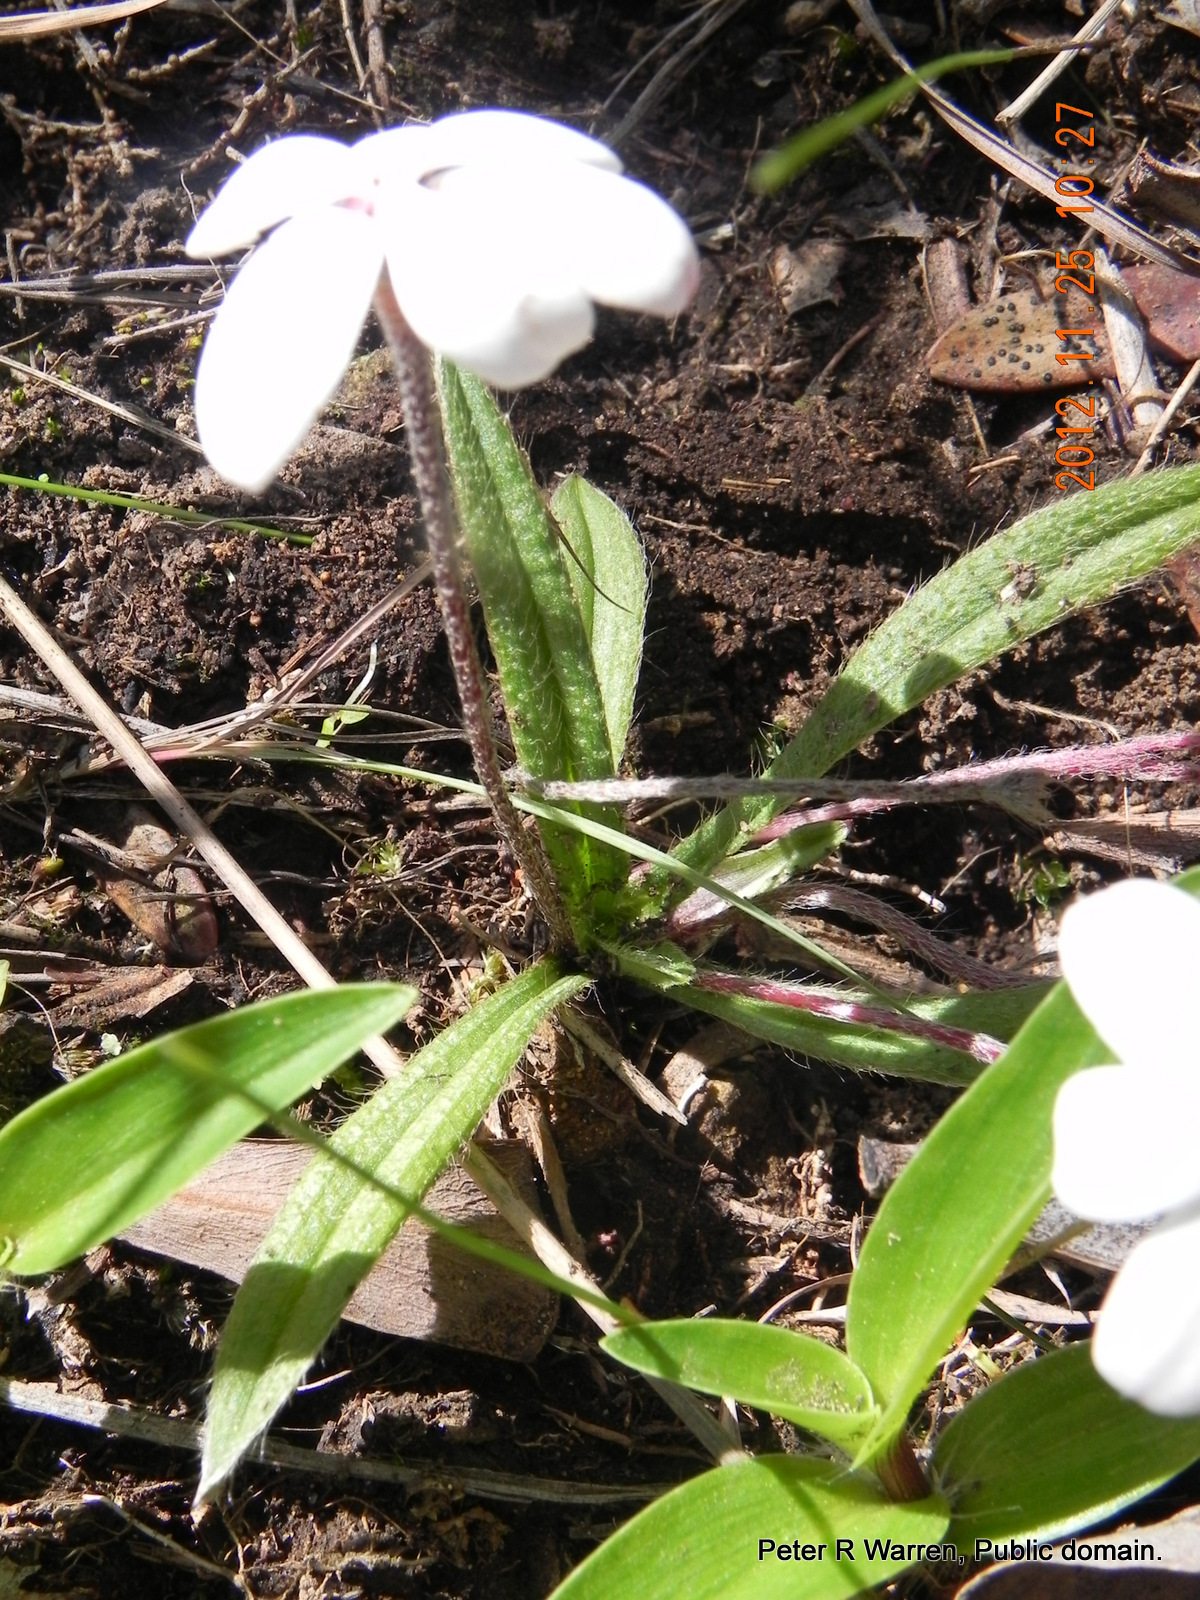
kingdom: Plantae
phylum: Tracheophyta
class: Liliopsida
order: Asparagales
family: Hypoxidaceae
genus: Hypoxis
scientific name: Hypoxis baurii
